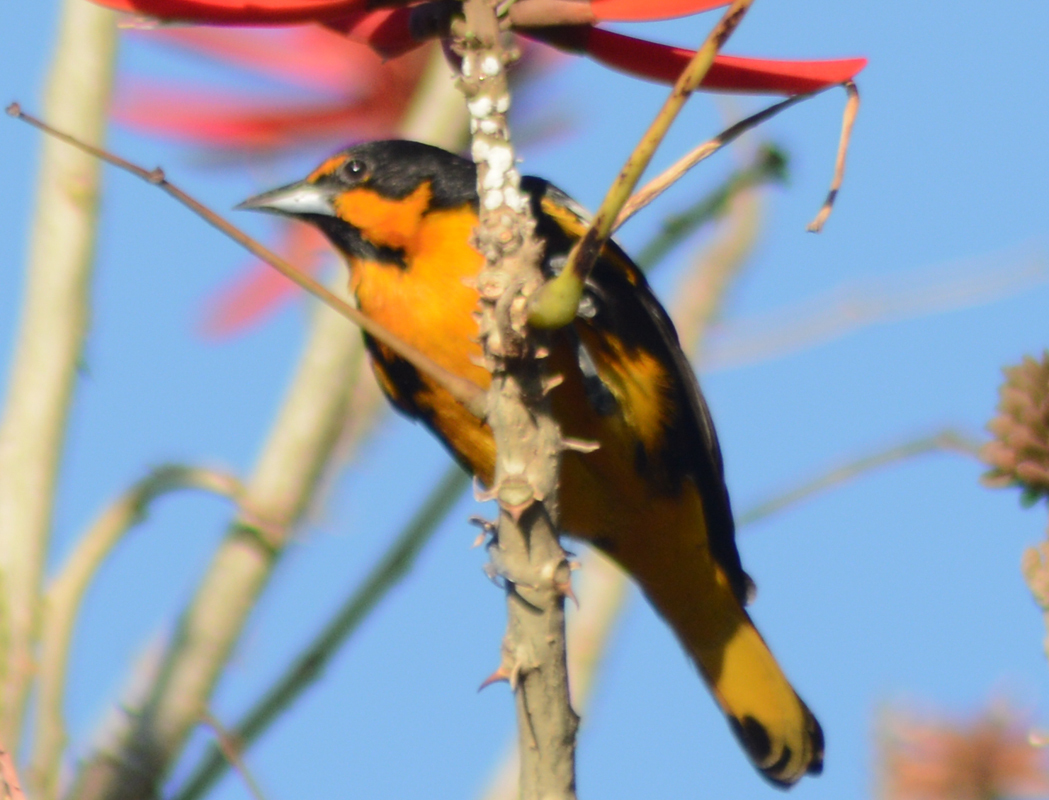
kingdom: Animalia
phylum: Chordata
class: Aves
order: Passeriformes
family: Icteridae
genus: Icterus
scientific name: Icterus abeillei
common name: Black-backed oriole
